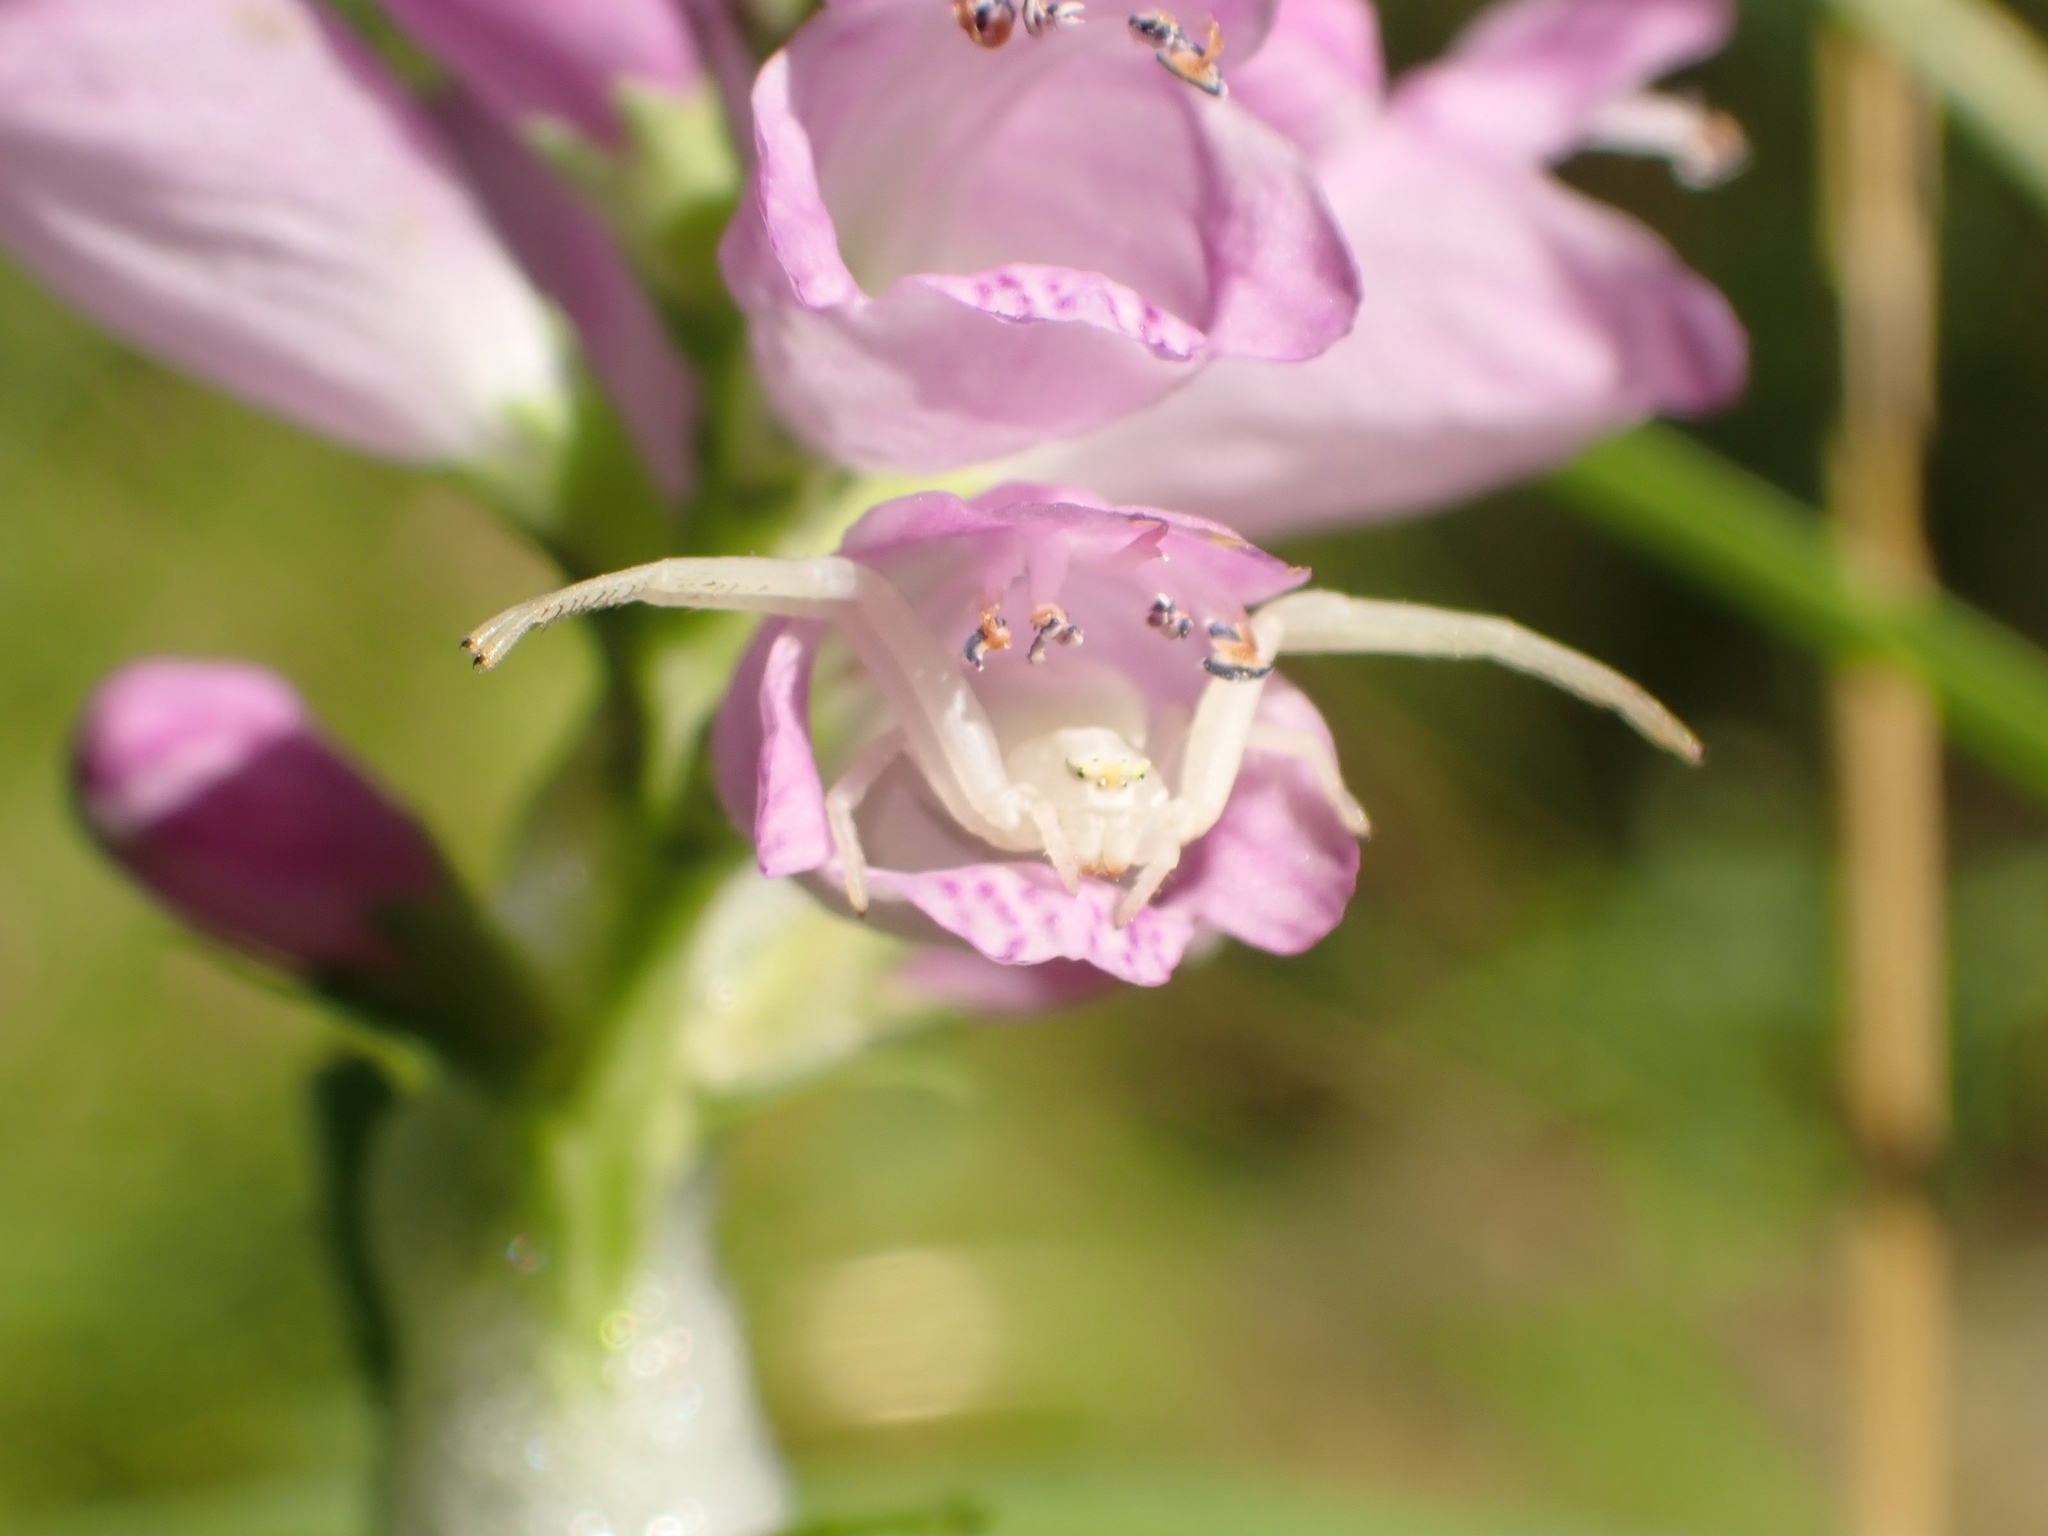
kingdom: Animalia
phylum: Arthropoda
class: Arachnida
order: Araneae
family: Thomisidae
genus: Misumena
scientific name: Misumena vatia
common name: Goldenrod crab spider
